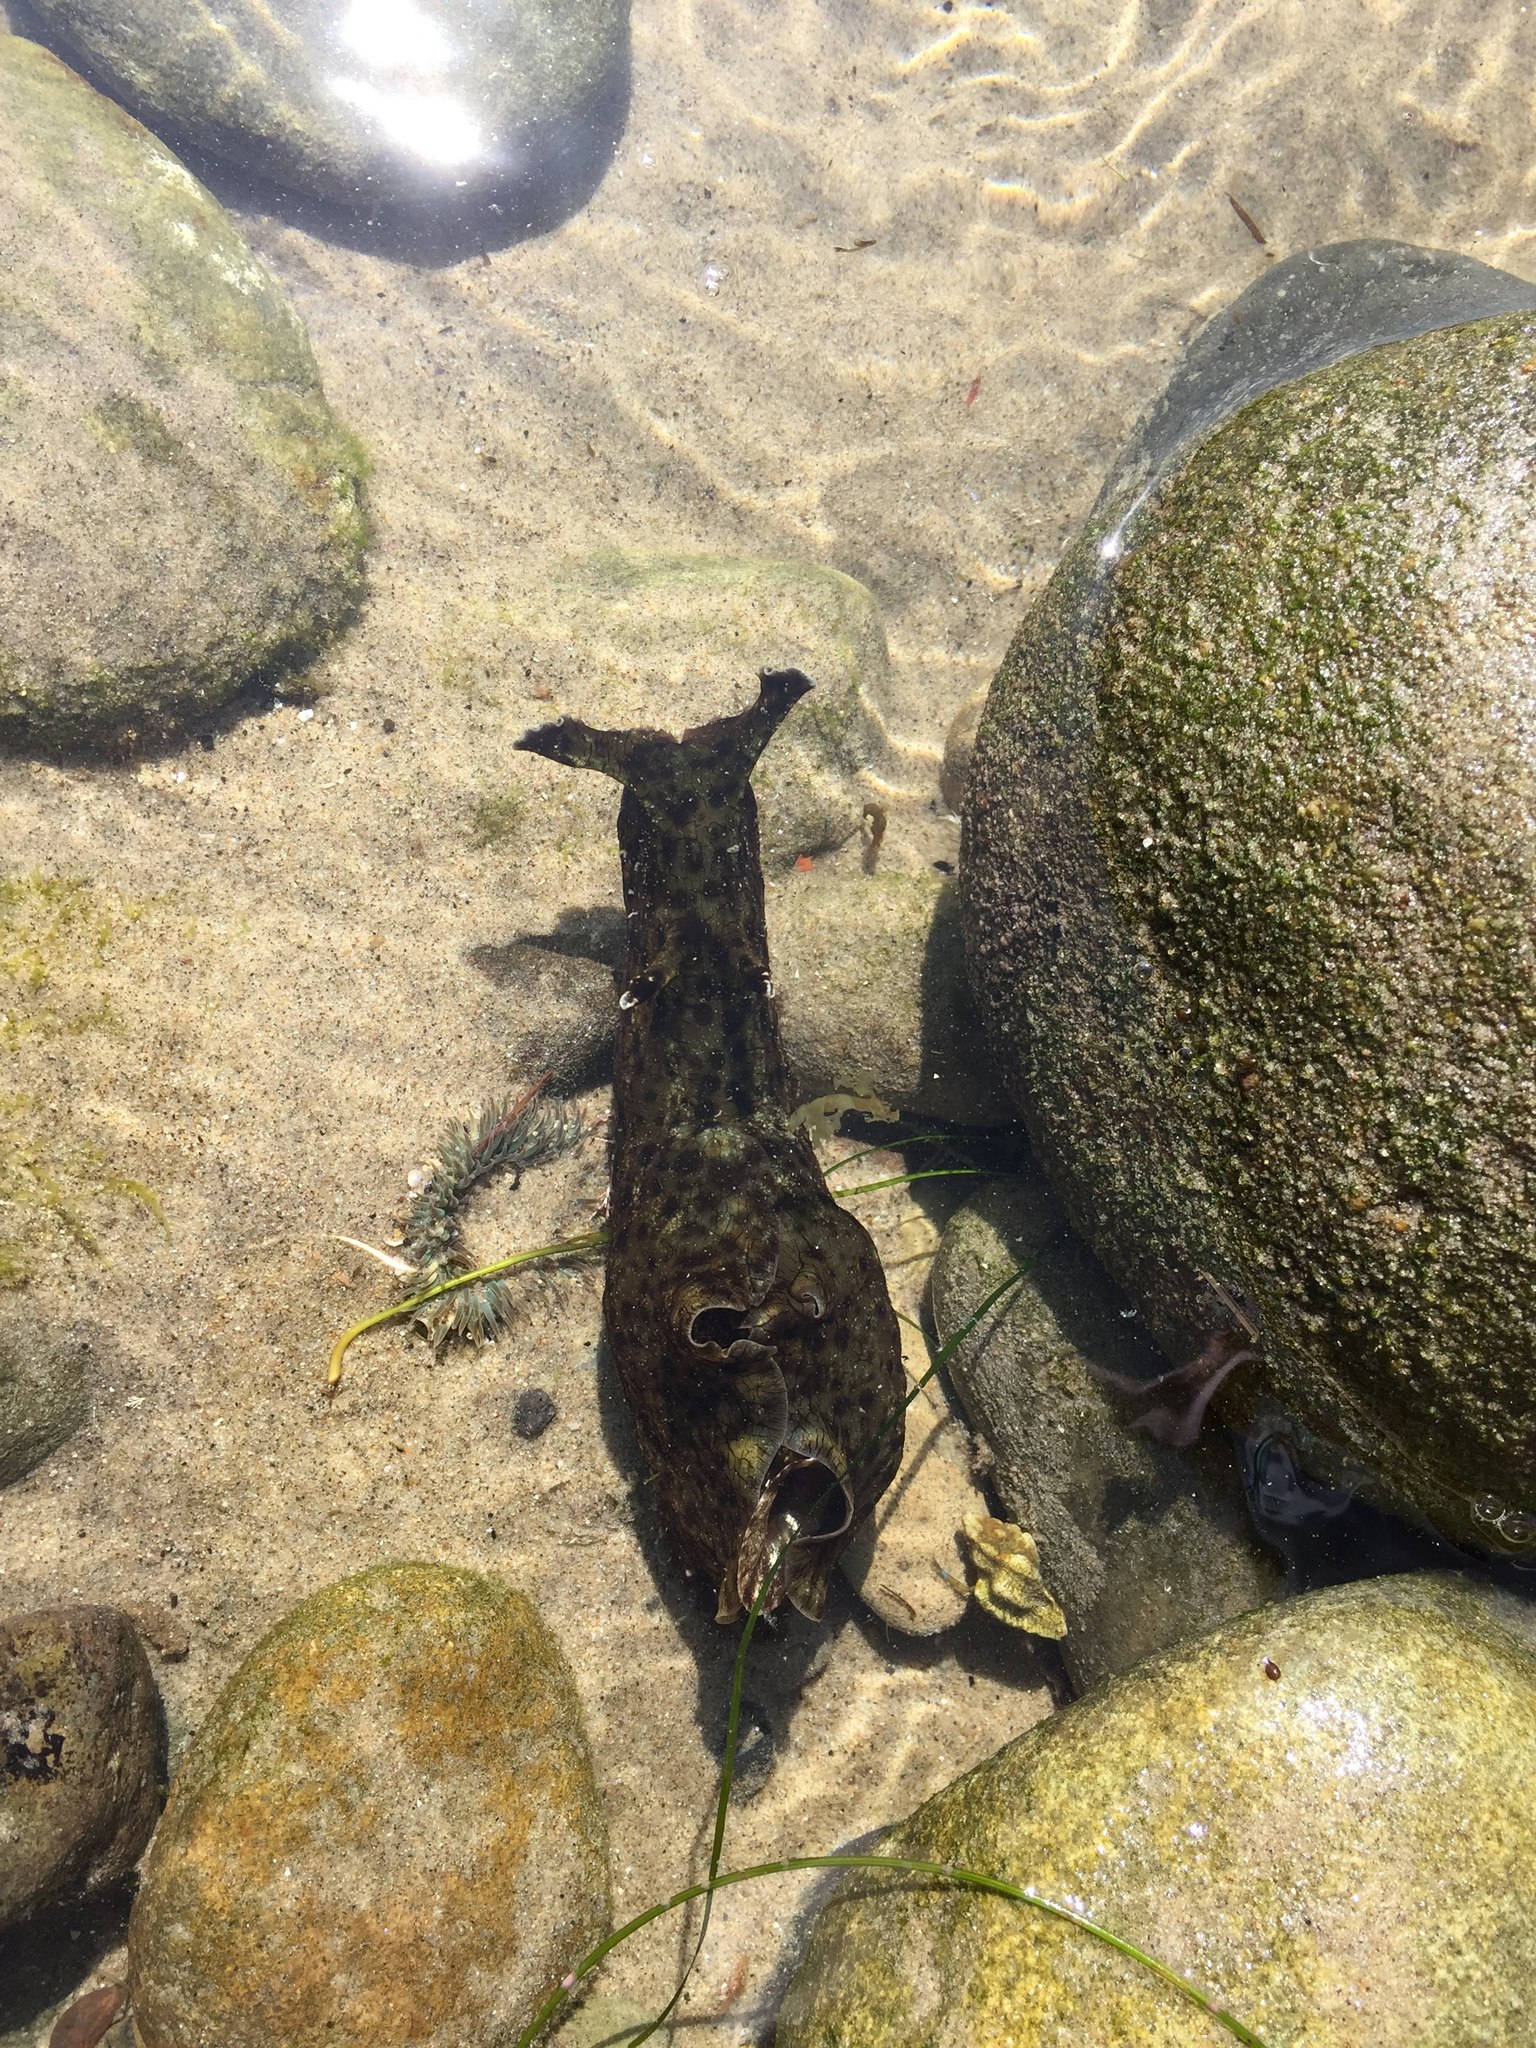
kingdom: Animalia
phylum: Mollusca
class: Gastropoda
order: Aplysiida
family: Aplysiidae
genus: Aplysia
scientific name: Aplysia californica
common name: California seahare
